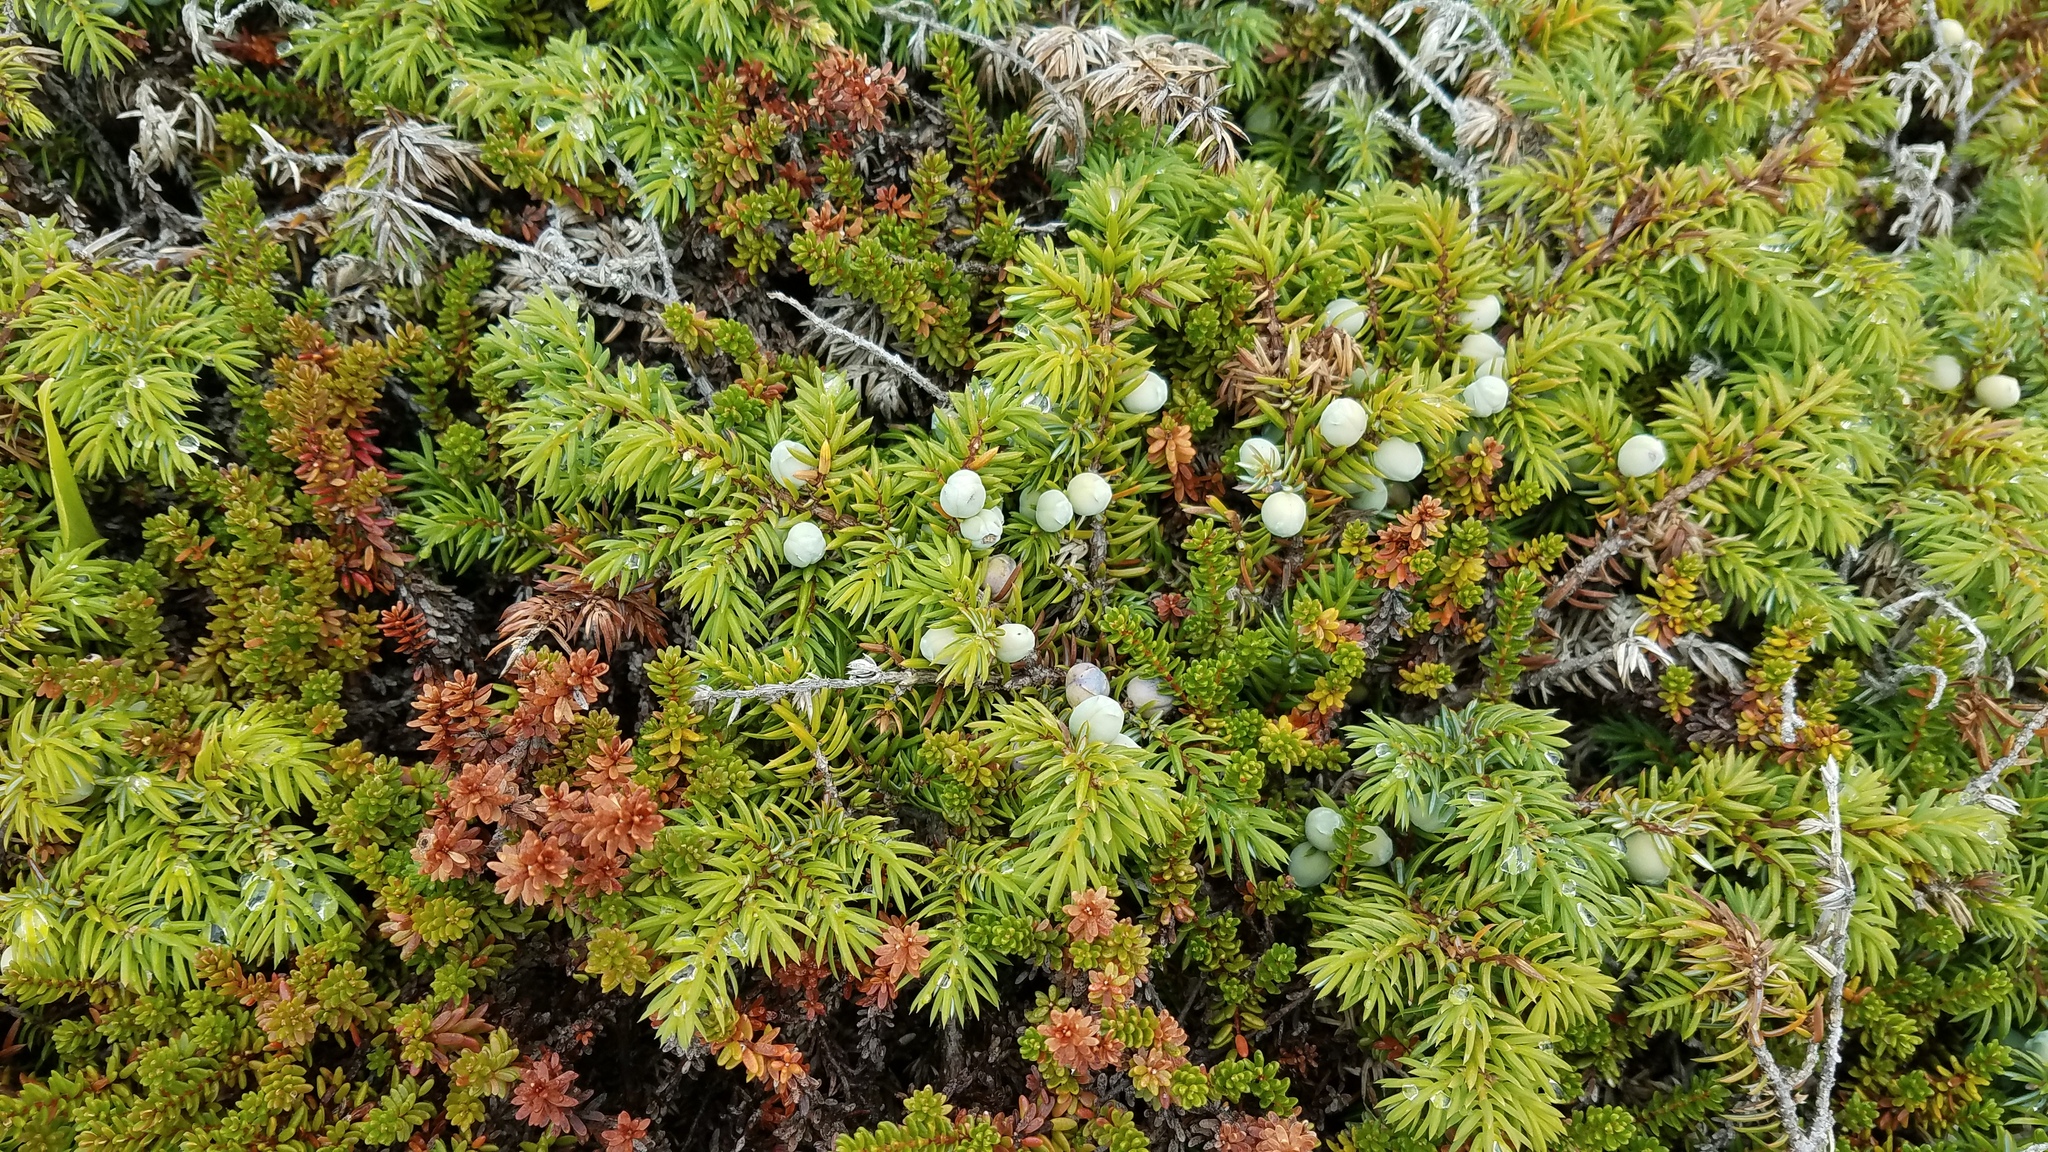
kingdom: Plantae
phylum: Tracheophyta
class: Pinopsida
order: Pinales
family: Cupressaceae
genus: Juniperus
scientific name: Juniperus communis
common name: Common juniper
